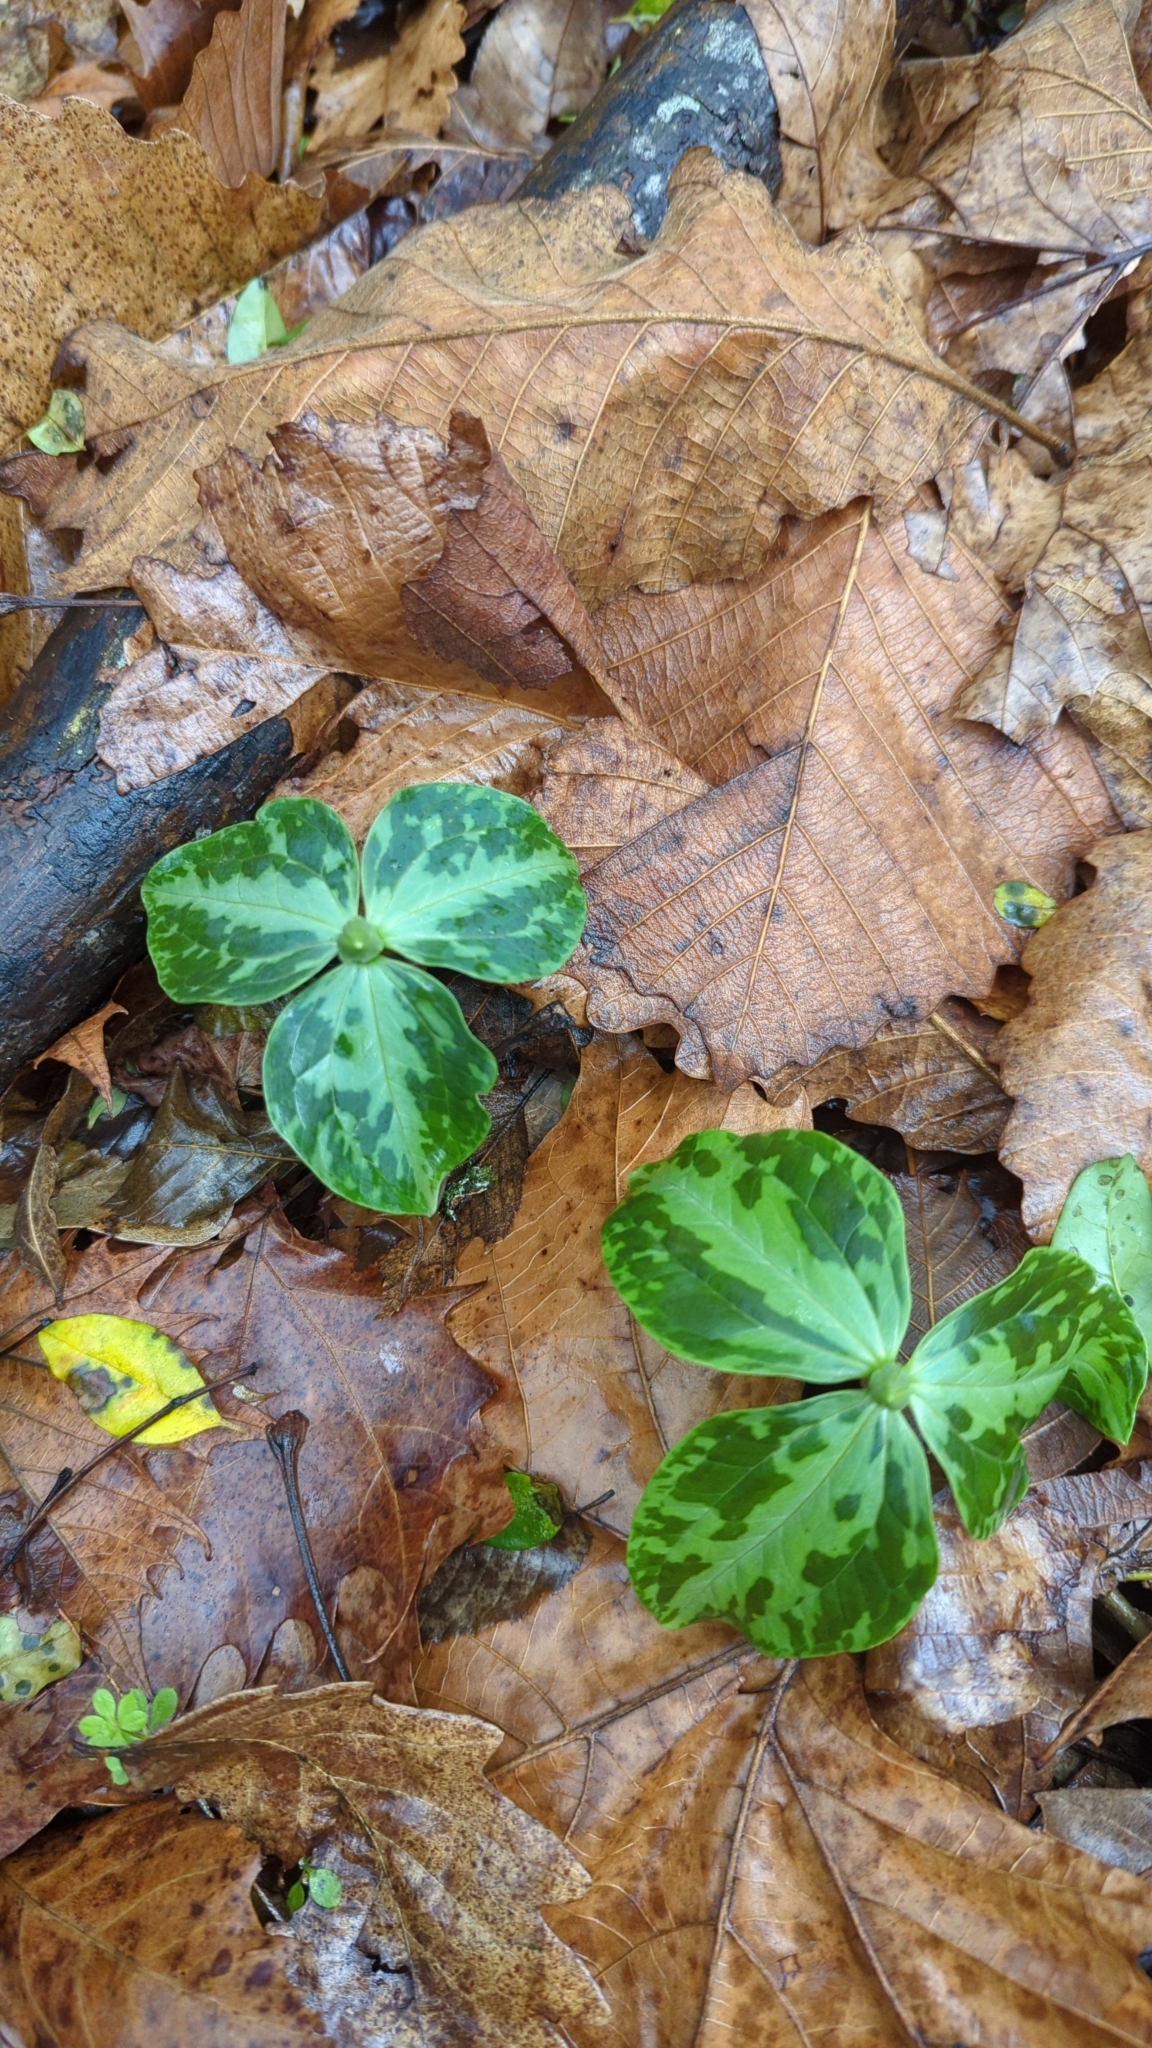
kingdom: Plantae
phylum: Tracheophyta
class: Liliopsida
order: Liliales
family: Melanthiaceae
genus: Trillium
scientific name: Trillium foetidissimum
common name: Mississippi river trillium
